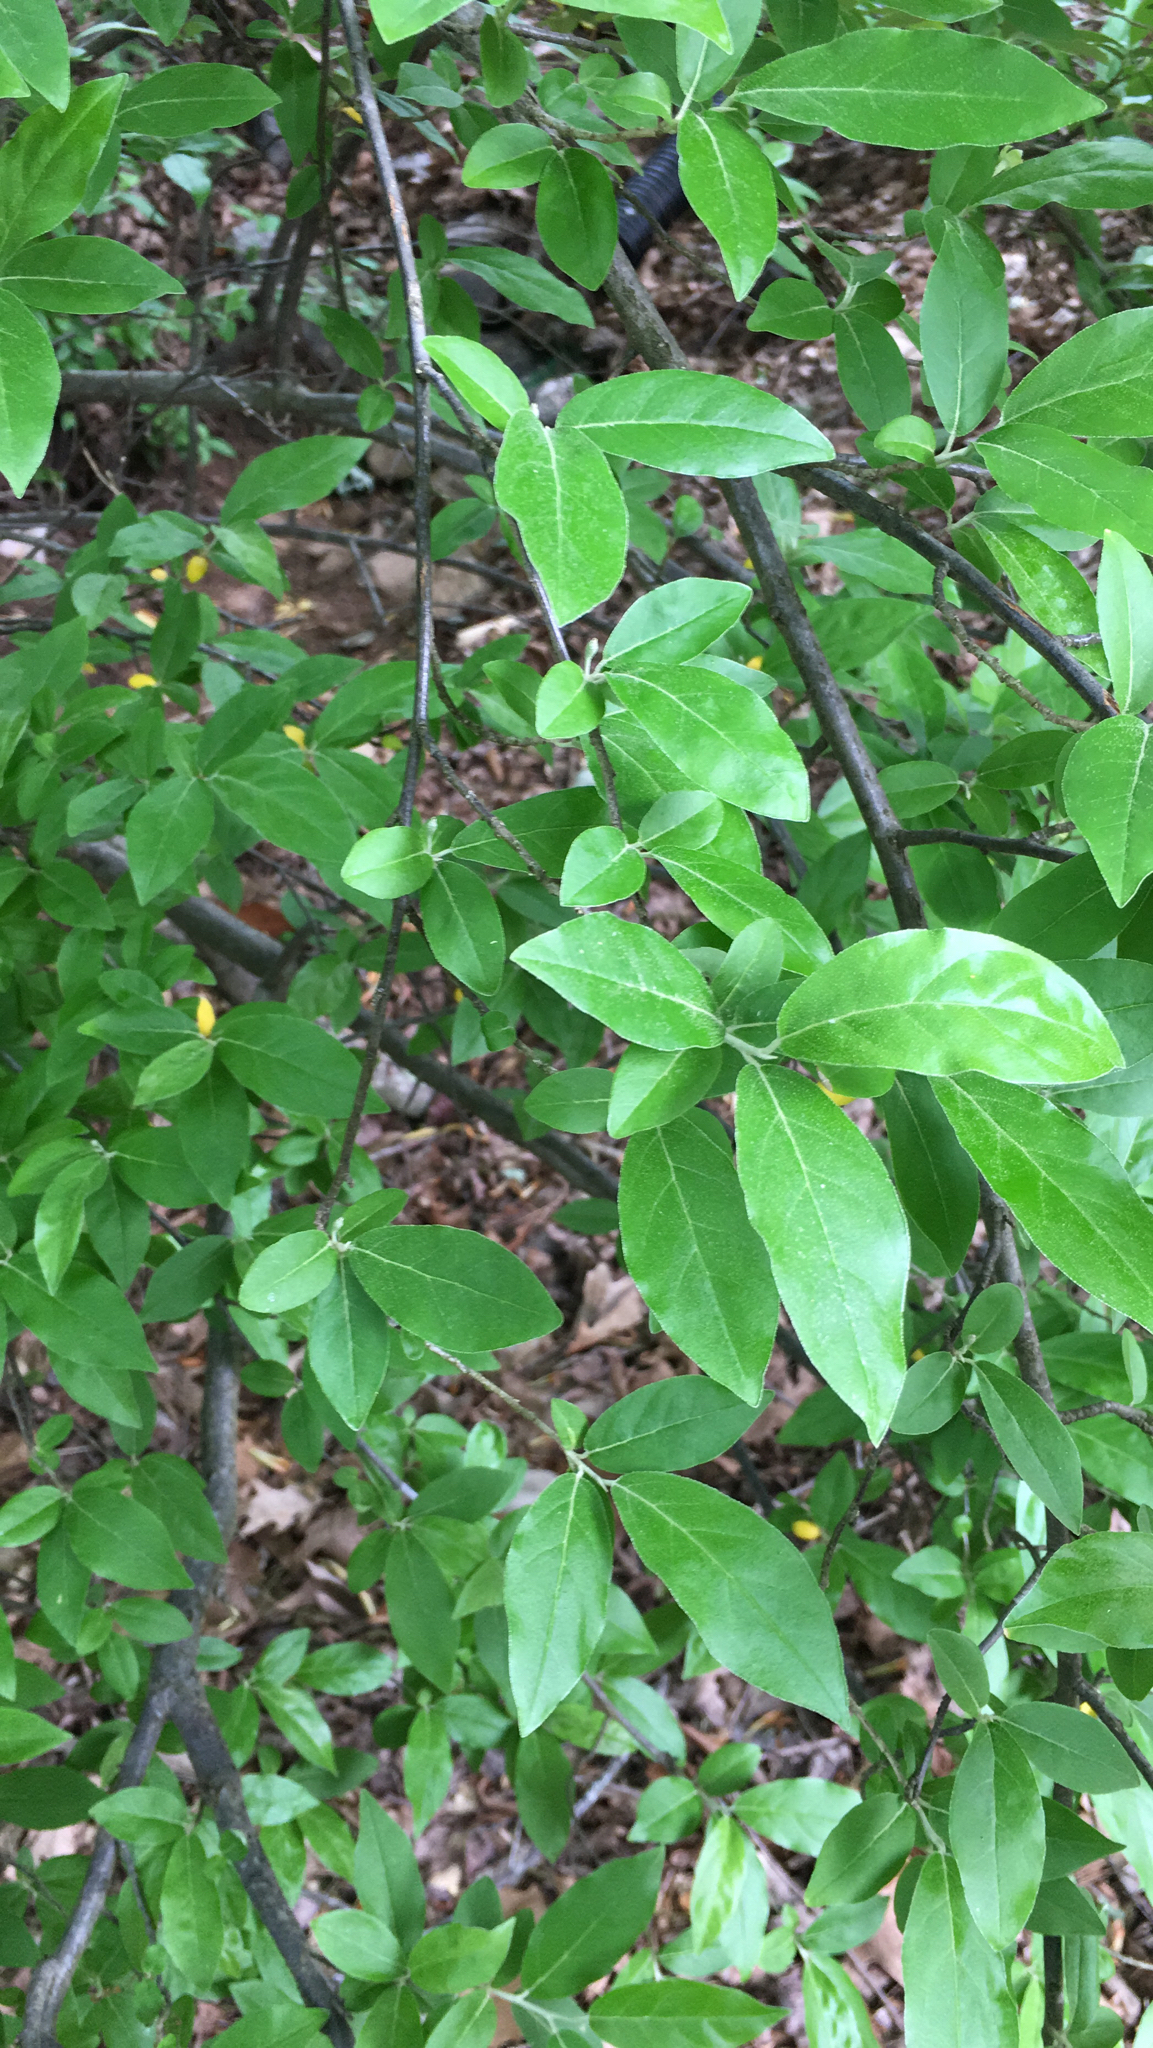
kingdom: Plantae
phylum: Tracheophyta
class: Magnoliopsida
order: Rosales
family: Elaeagnaceae
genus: Elaeagnus
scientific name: Elaeagnus umbellata
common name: Autumn olive
